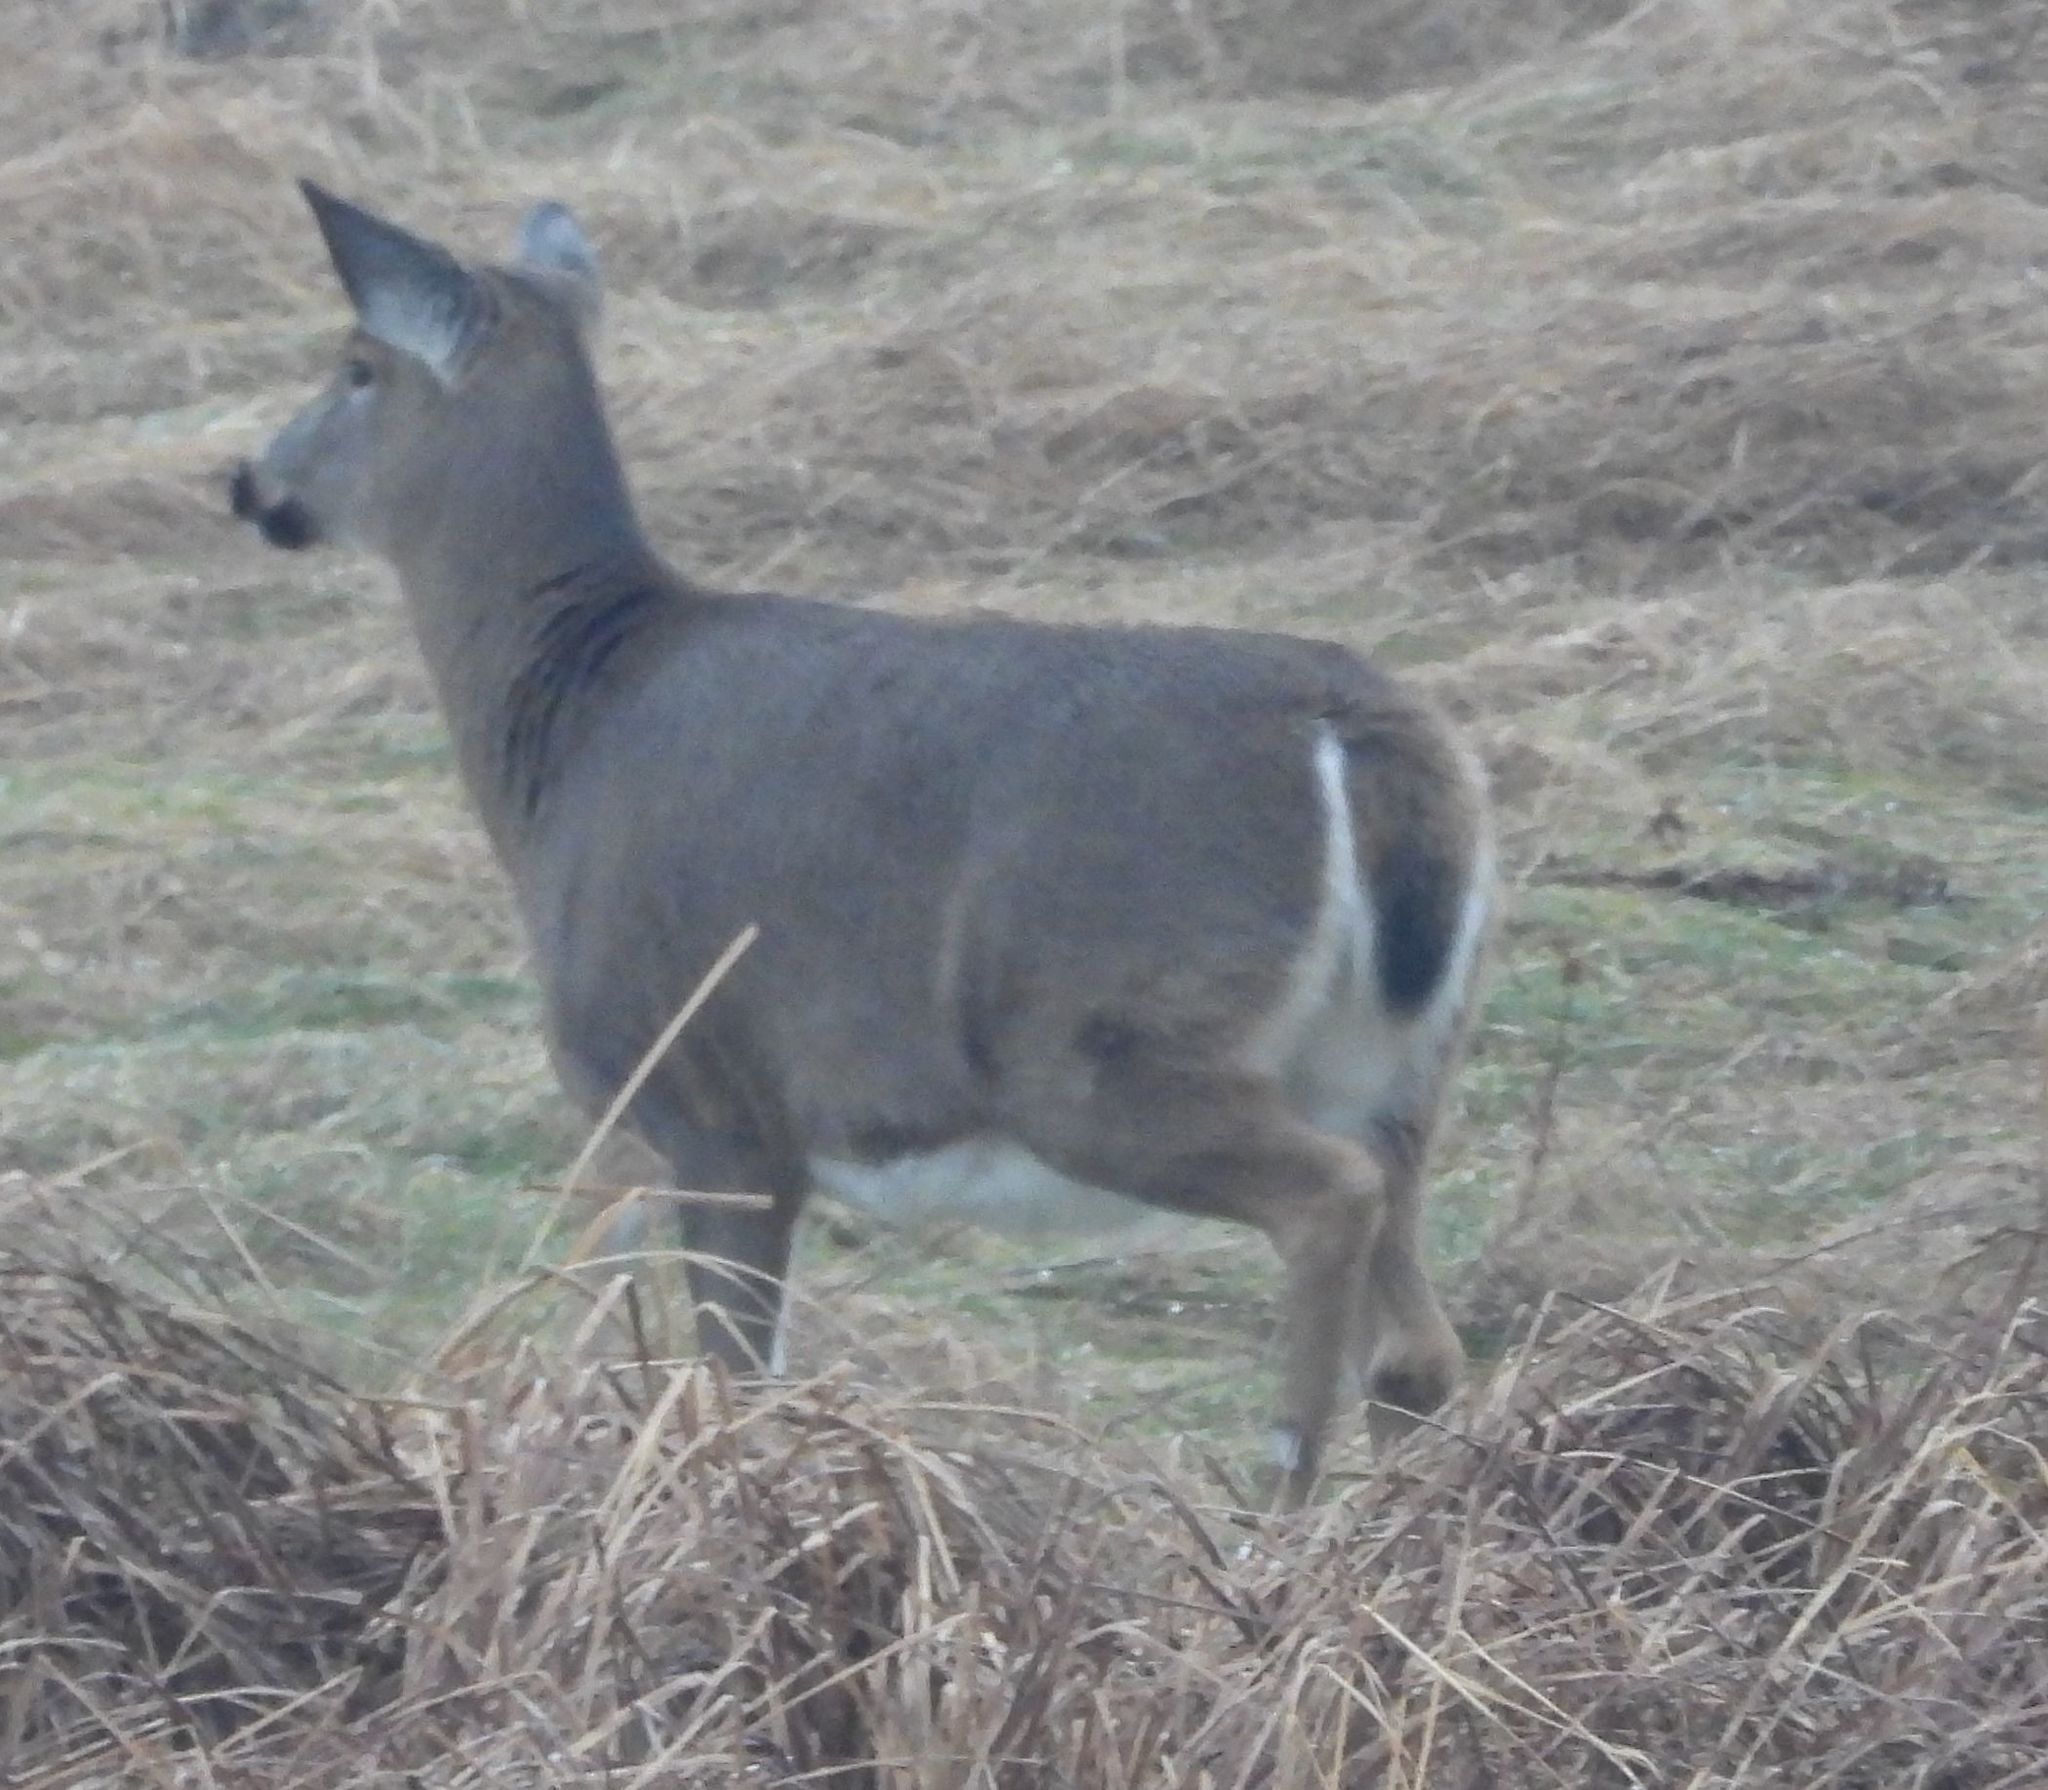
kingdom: Animalia
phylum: Chordata
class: Mammalia
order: Artiodactyla
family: Cervidae
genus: Odocoileus
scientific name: Odocoileus virginianus
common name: White-tailed deer
